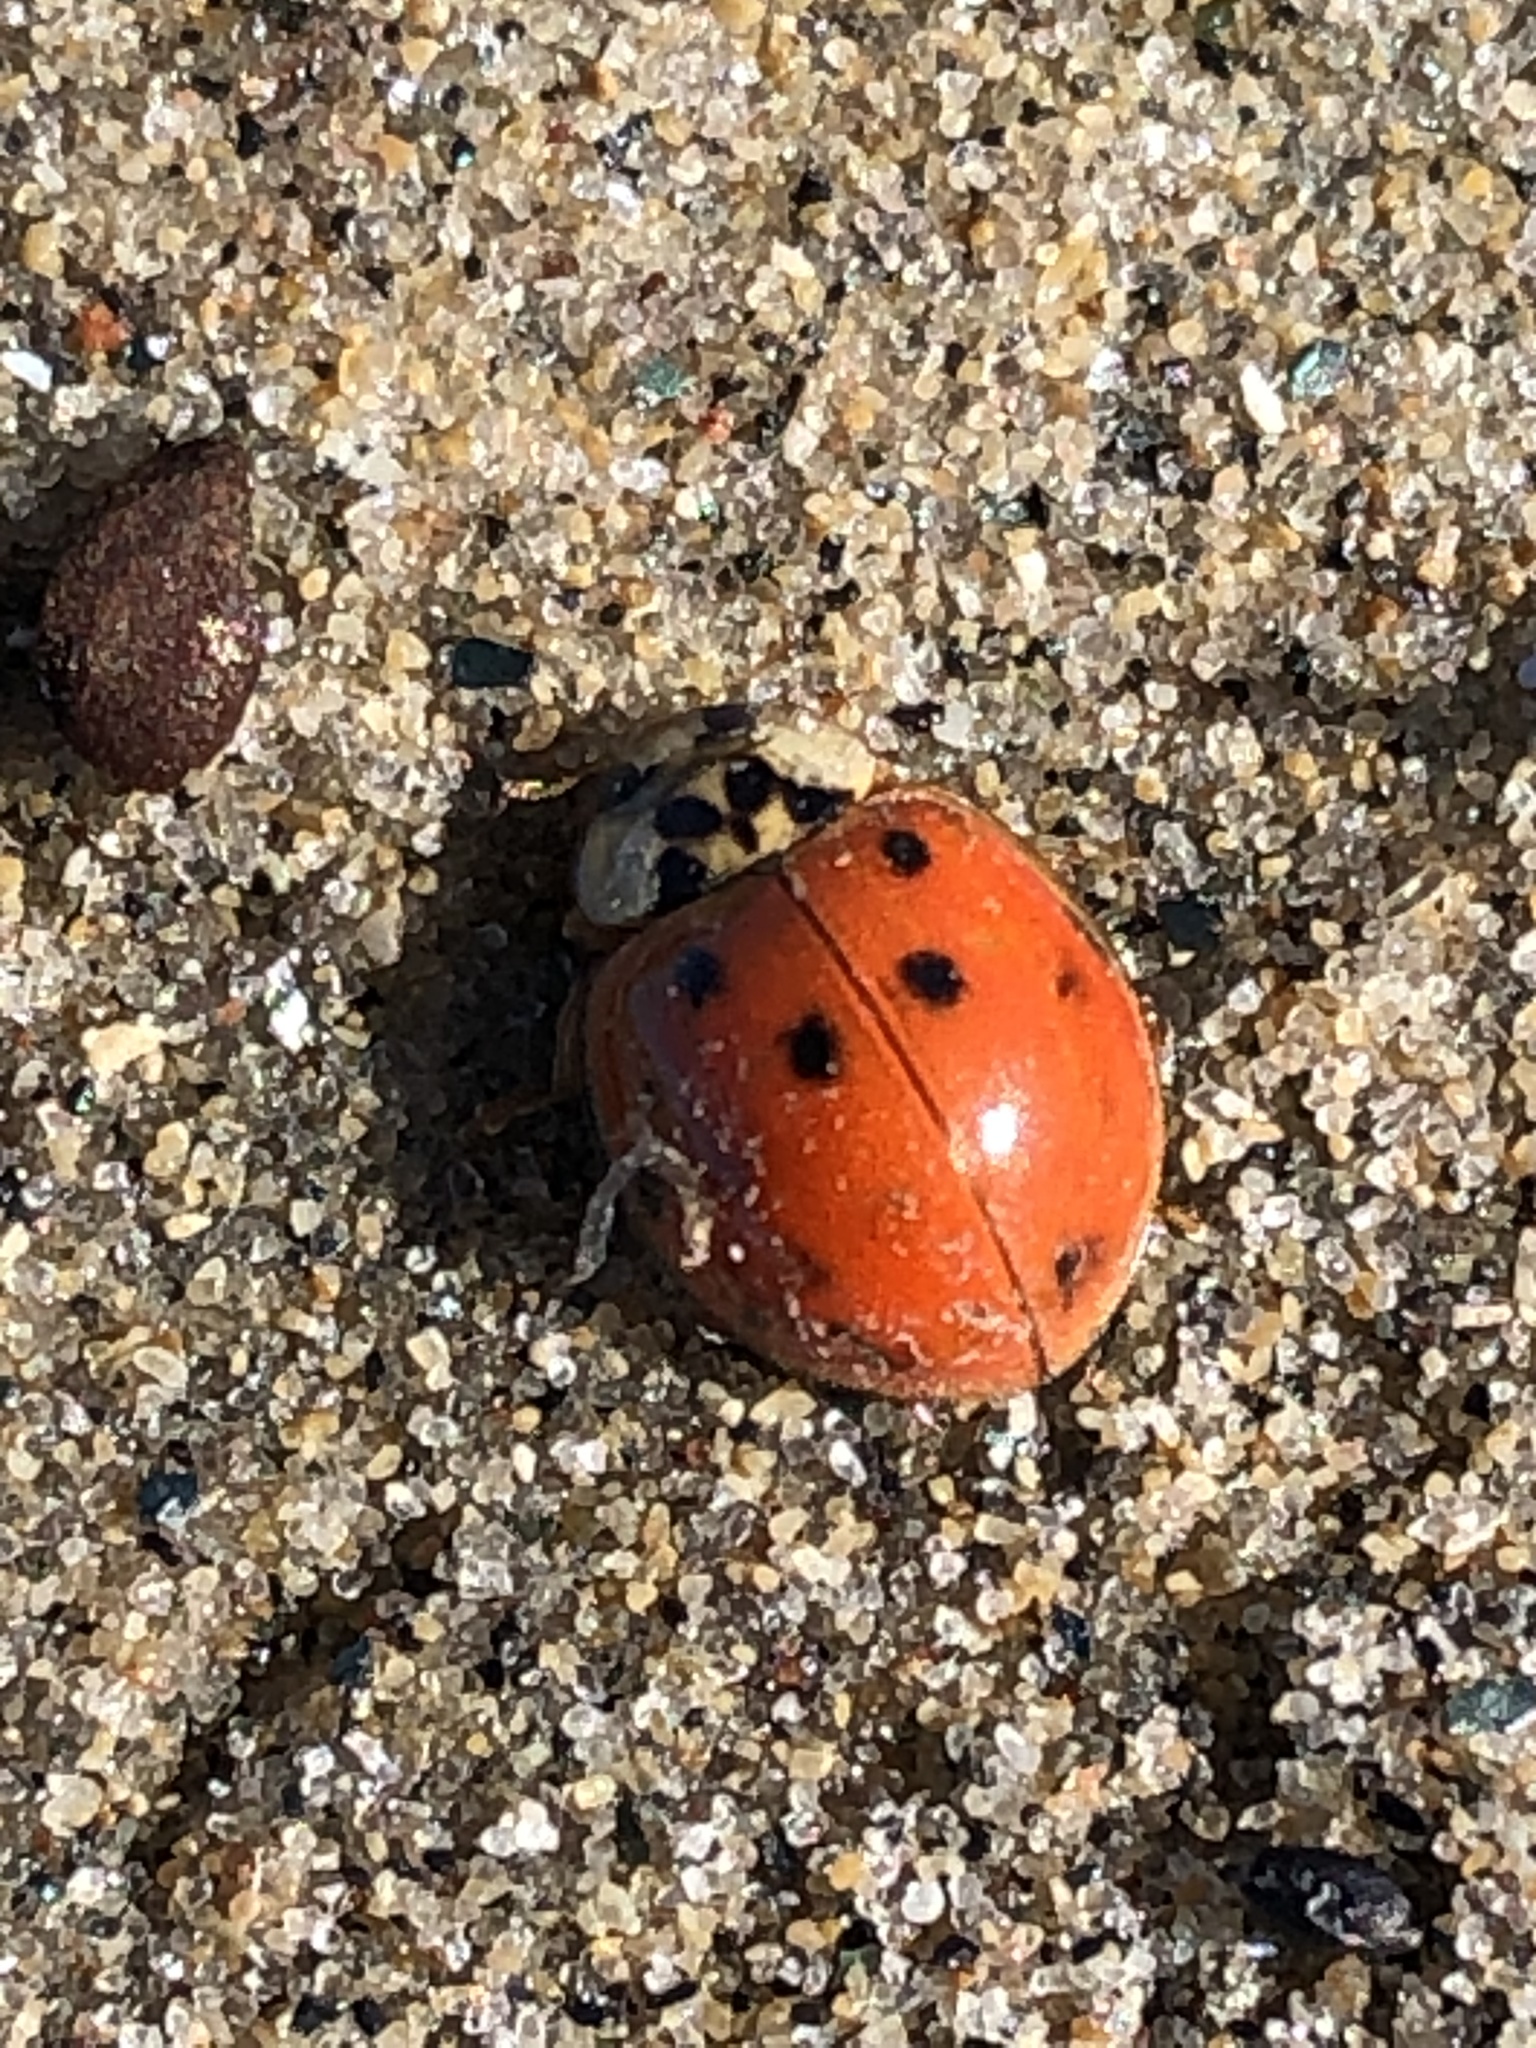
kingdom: Animalia
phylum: Arthropoda
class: Insecta
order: Coleoptera
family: Coccinellidae
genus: Harmonia
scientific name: Harmonia axyridis
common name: Harlequin ladybird
